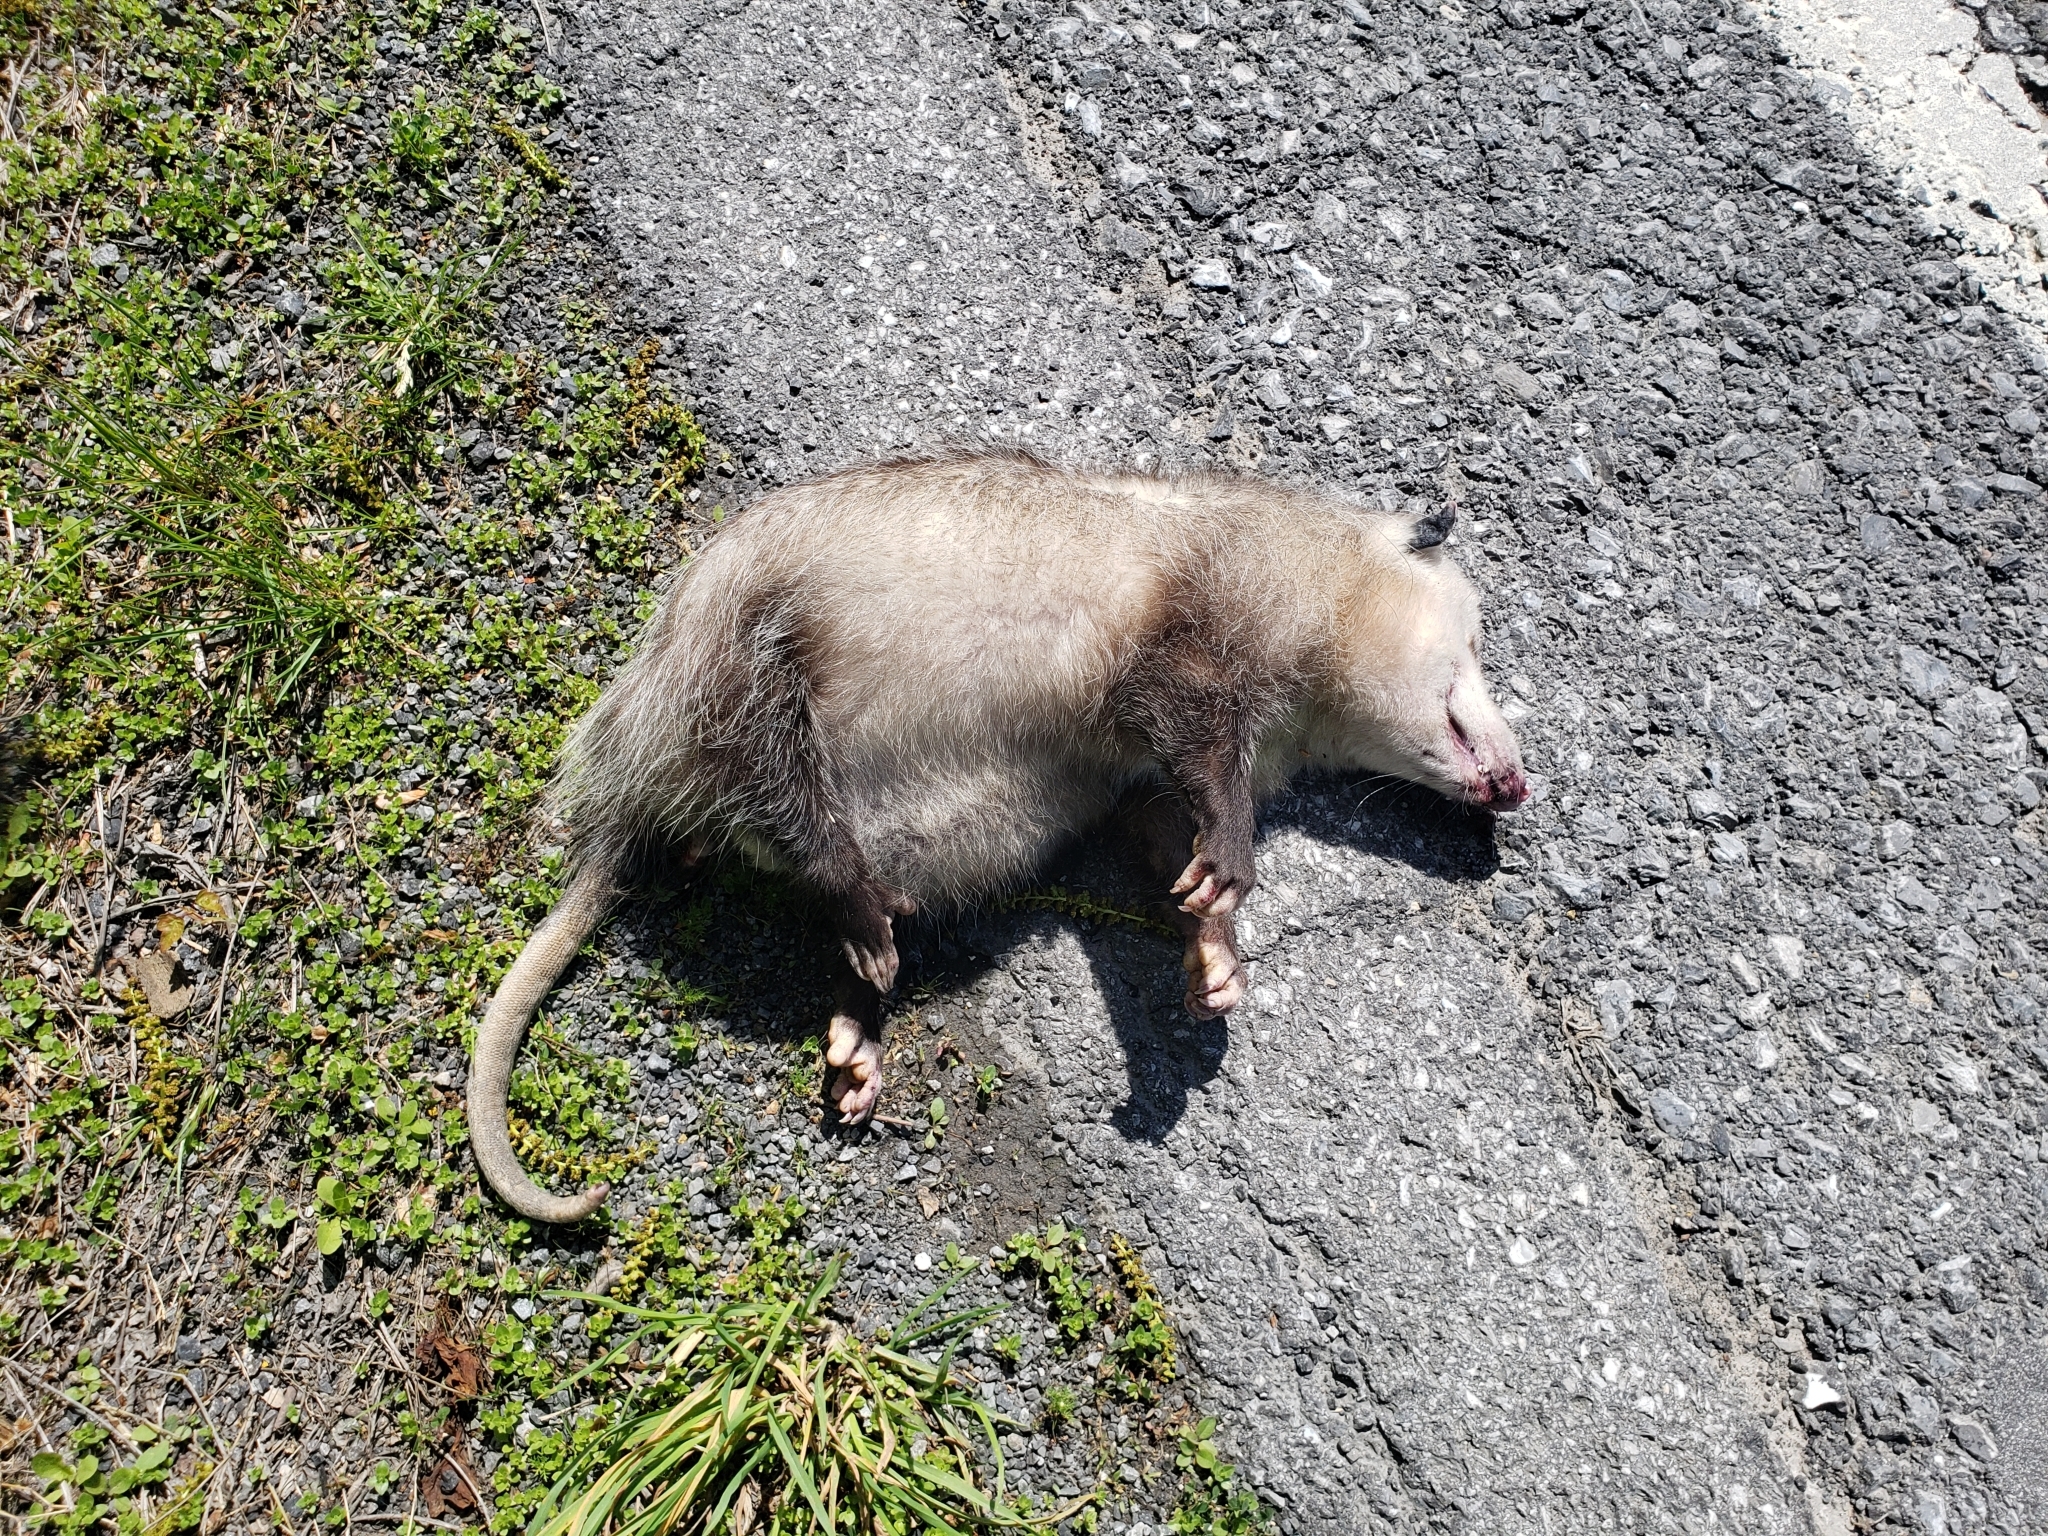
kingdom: Animalia
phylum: Chordata
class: Mammalia
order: Didelphimorphia
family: Didelphidae
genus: Didelphis
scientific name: Didelphis virginiana
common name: Virginia opossum
